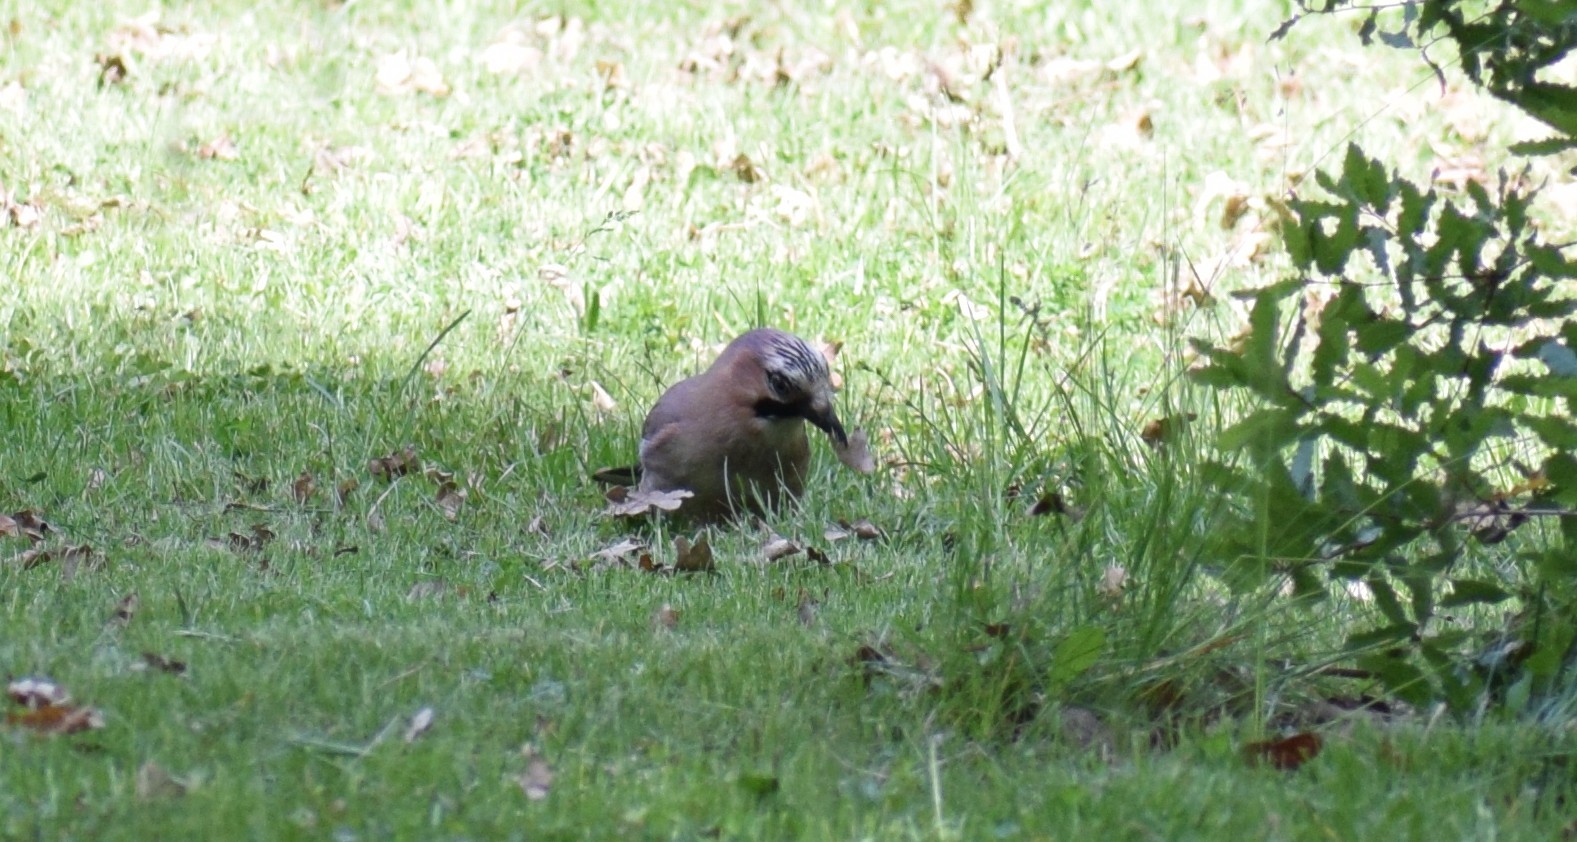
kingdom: Animalia
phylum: Chordata
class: Aves
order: Passeriformes
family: Corvidae
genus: Garrulus
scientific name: Garrulus glandarius
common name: Eurasian jay
